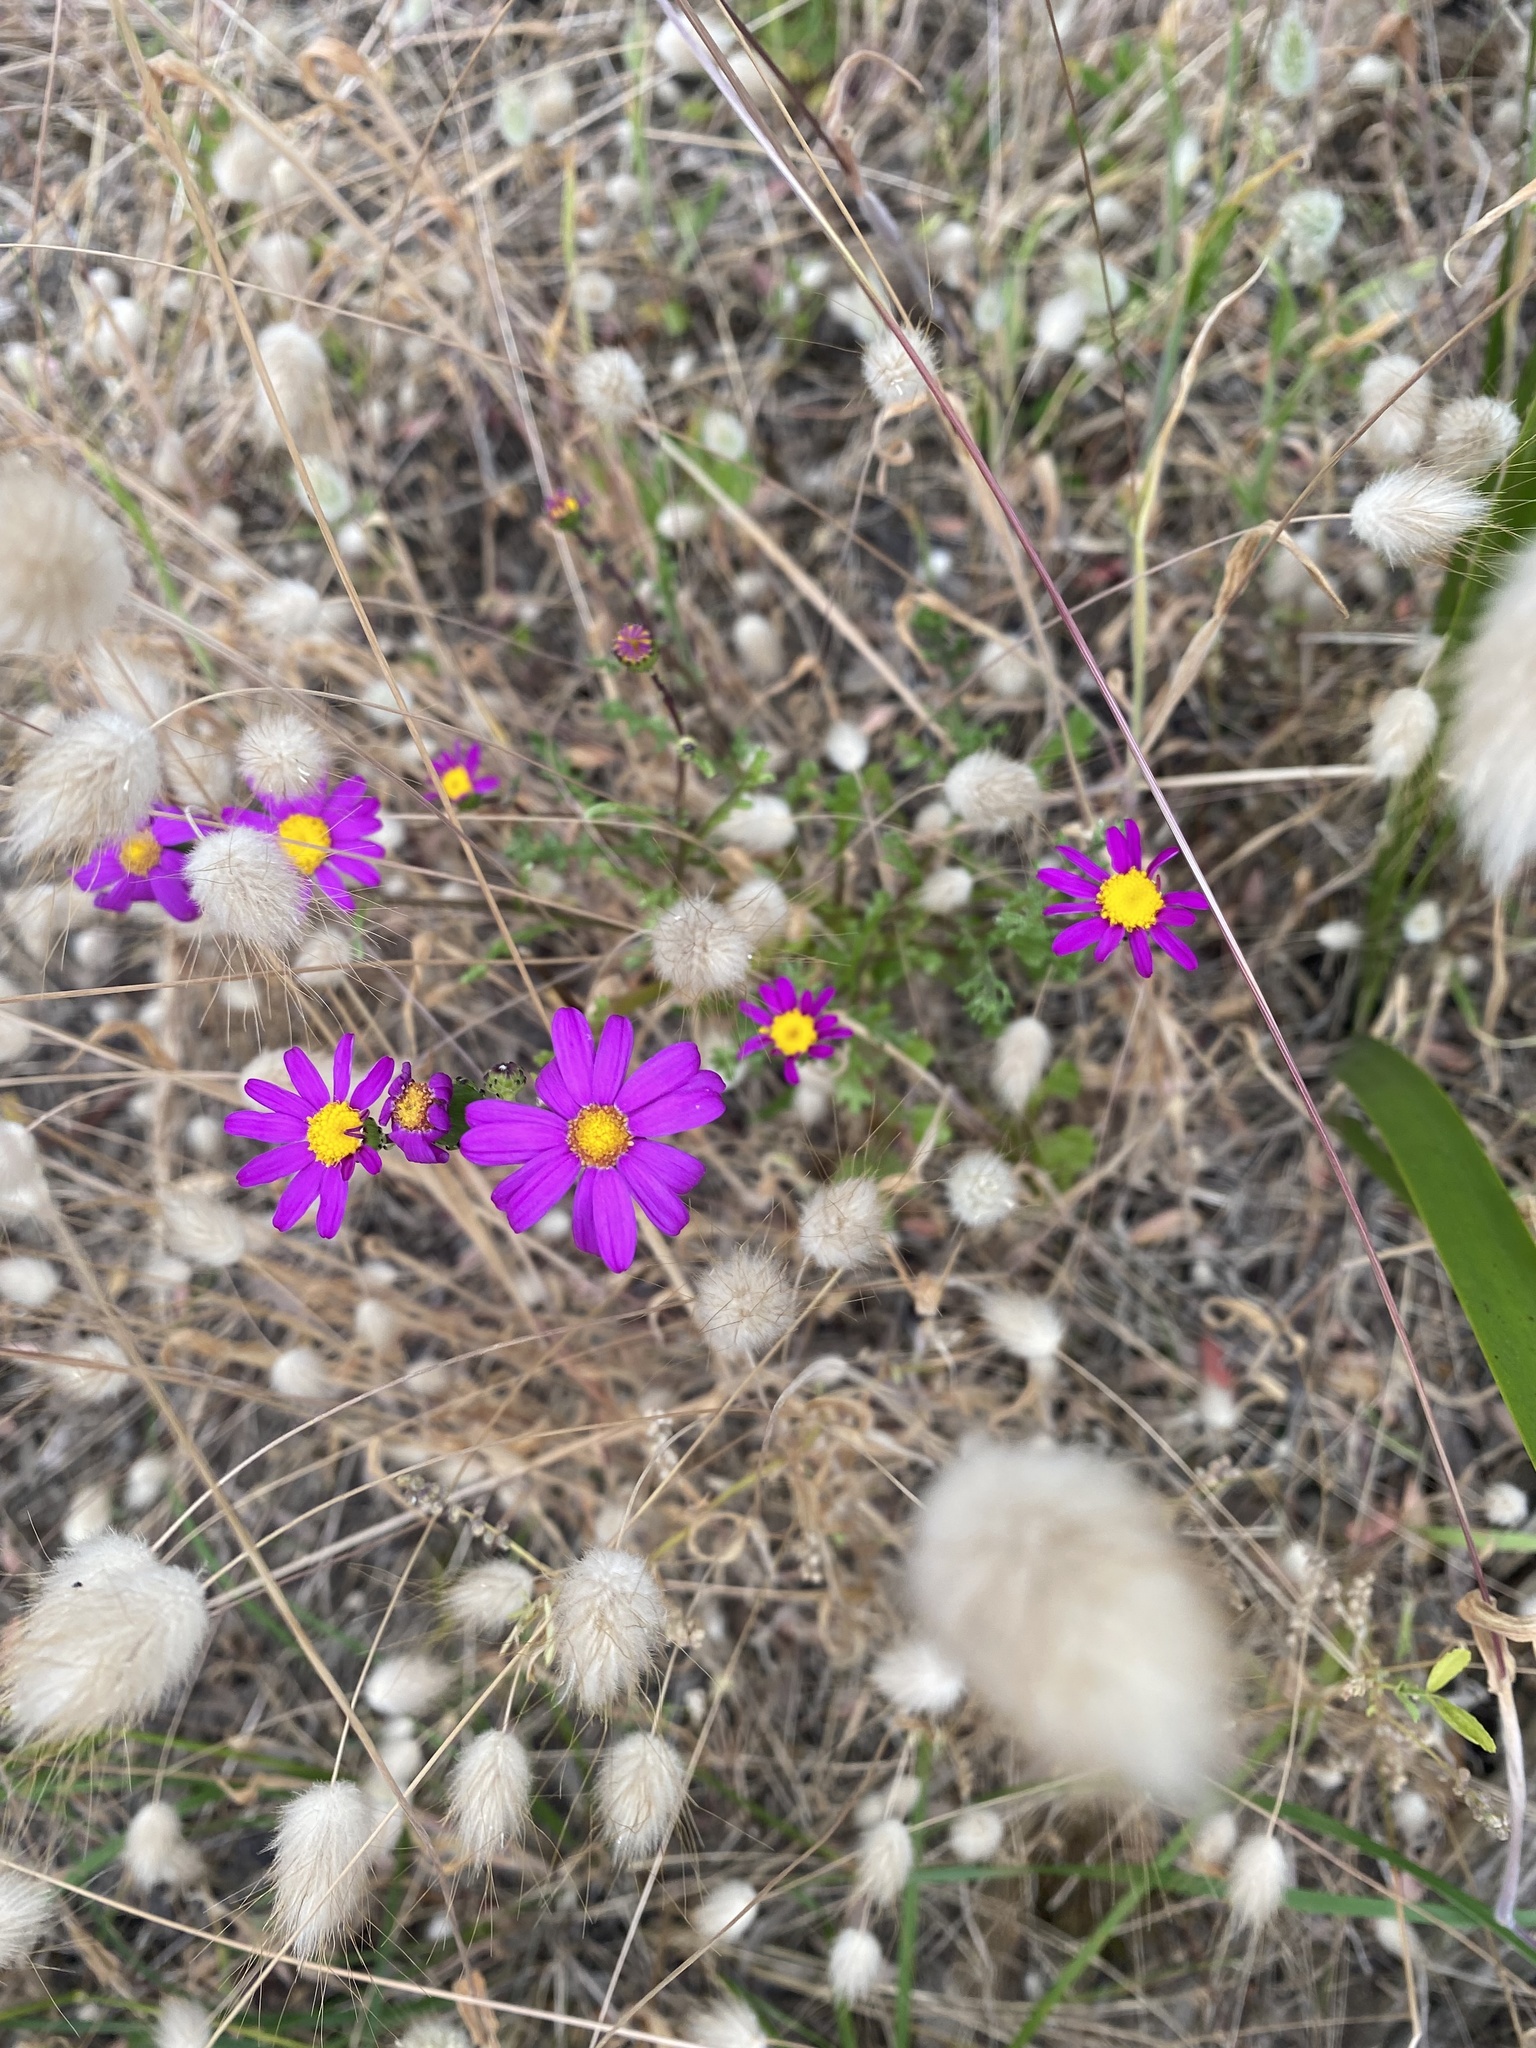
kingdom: Plantae
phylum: Tracheophyta
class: Magnoliopsida
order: Asterales
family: Asteraceae
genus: Senecio
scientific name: Senecio elegans
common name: Purple groundsel
